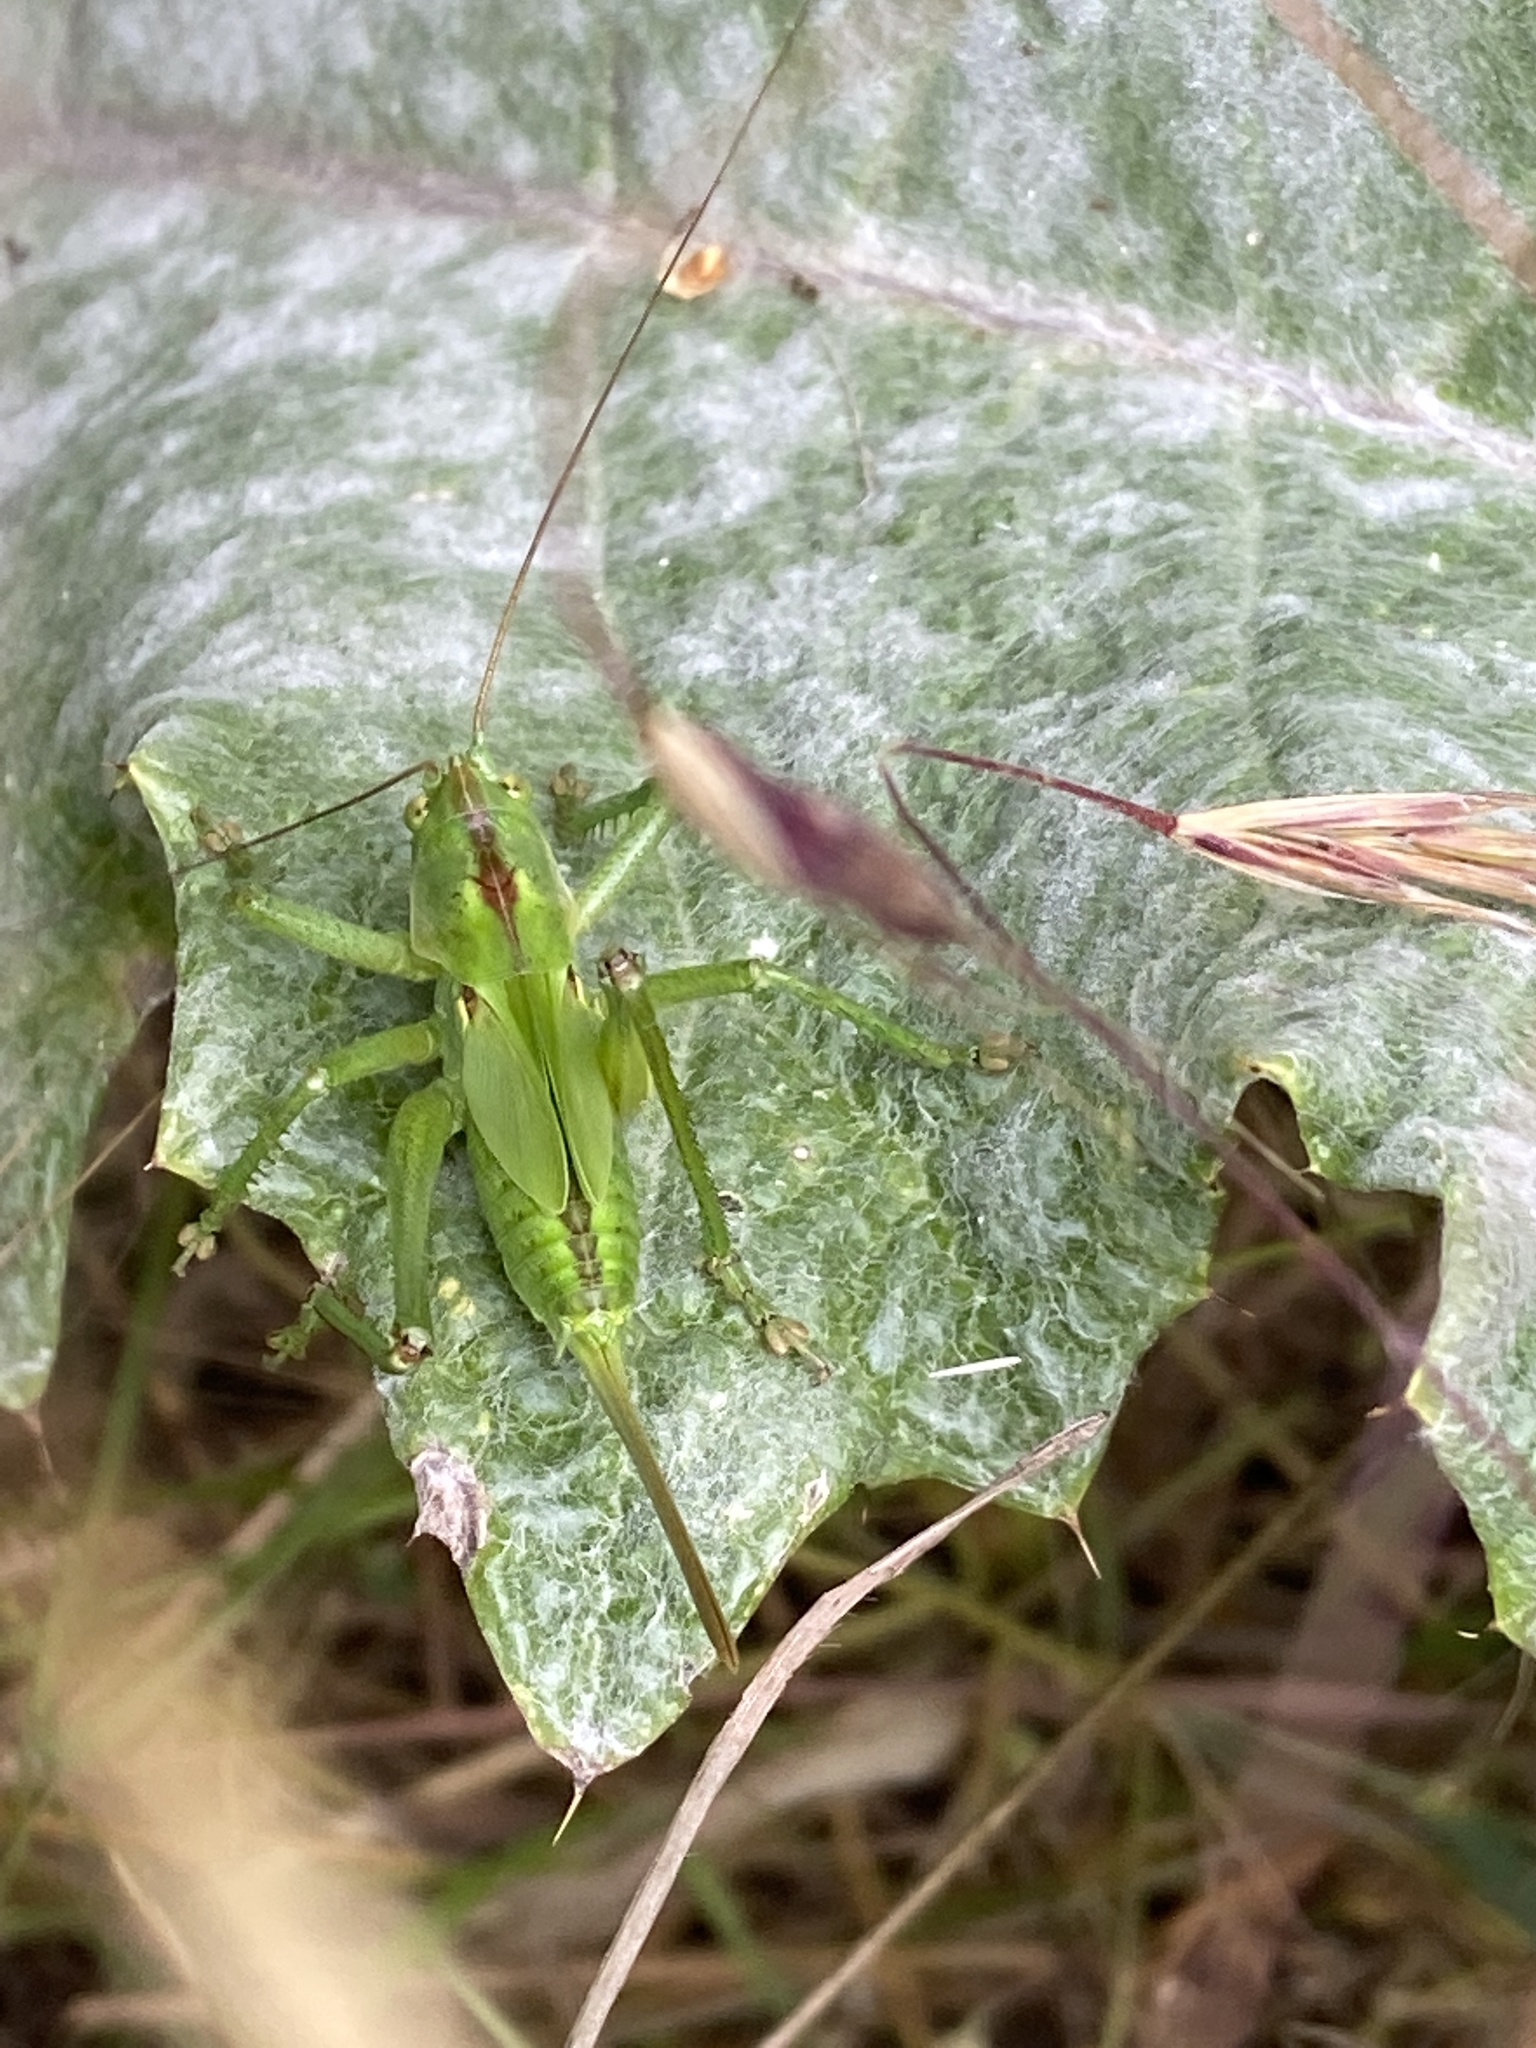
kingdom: Animalia
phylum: Arthropoda
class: Insecta
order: Orthoptera
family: Tettigoniidae
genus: Tettigonia
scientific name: Tettigonia viridissima
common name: Great green bush-cricket
